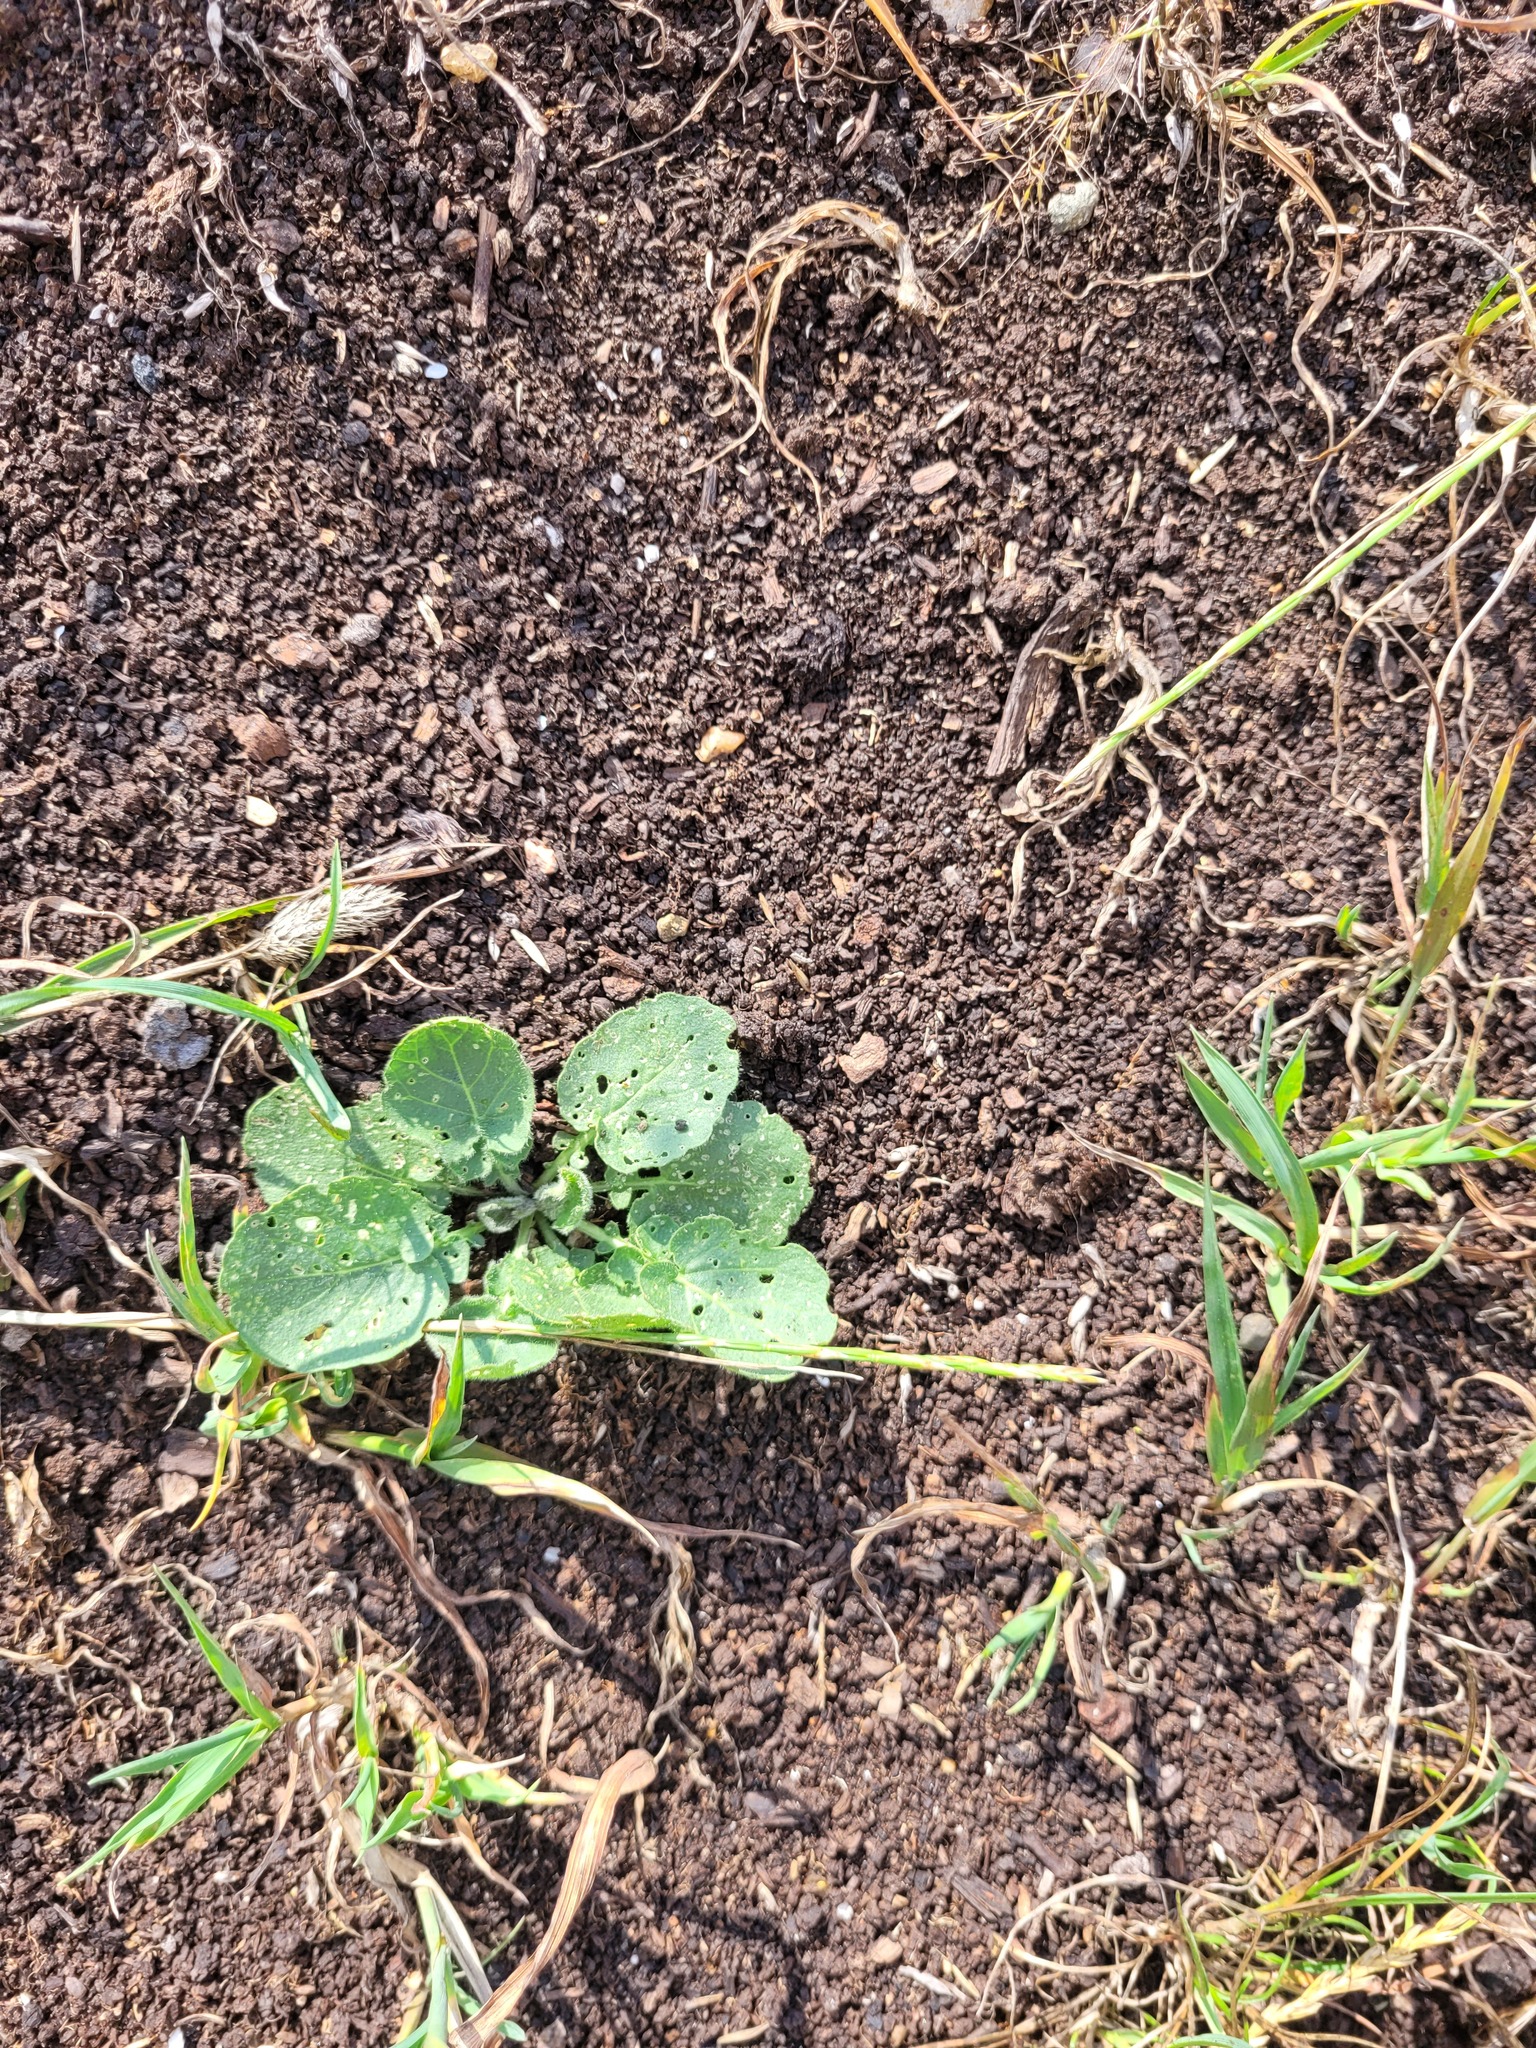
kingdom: Plantae
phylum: Tracheophyta
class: Magnoliopsida
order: Brassicales
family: Brassicaceae
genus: Barbarea
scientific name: Barbarea vulgaris
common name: Cressy-greens
